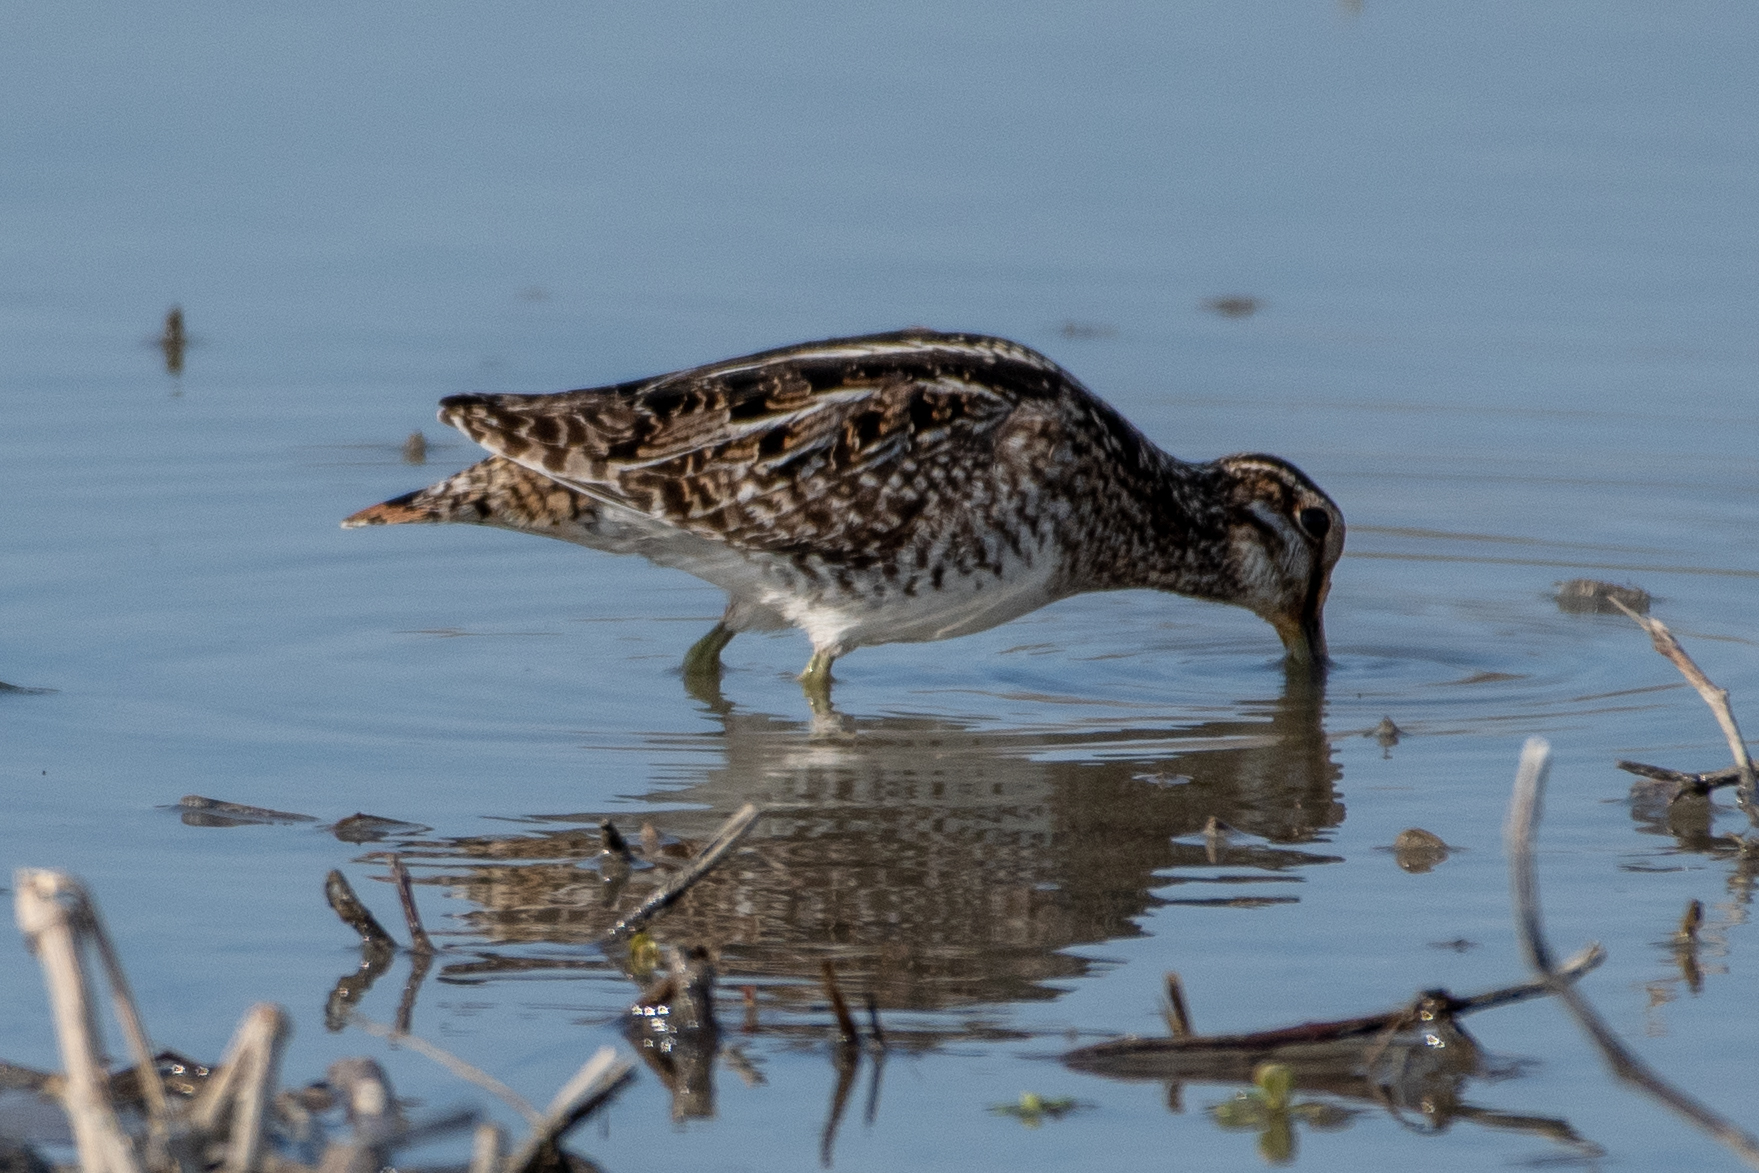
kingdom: Animalia
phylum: Chordata
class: Aves
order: Charadriiformes
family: Scolopacidae
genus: Gallinago
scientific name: Gallinago delicata
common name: Wilson's snipe
